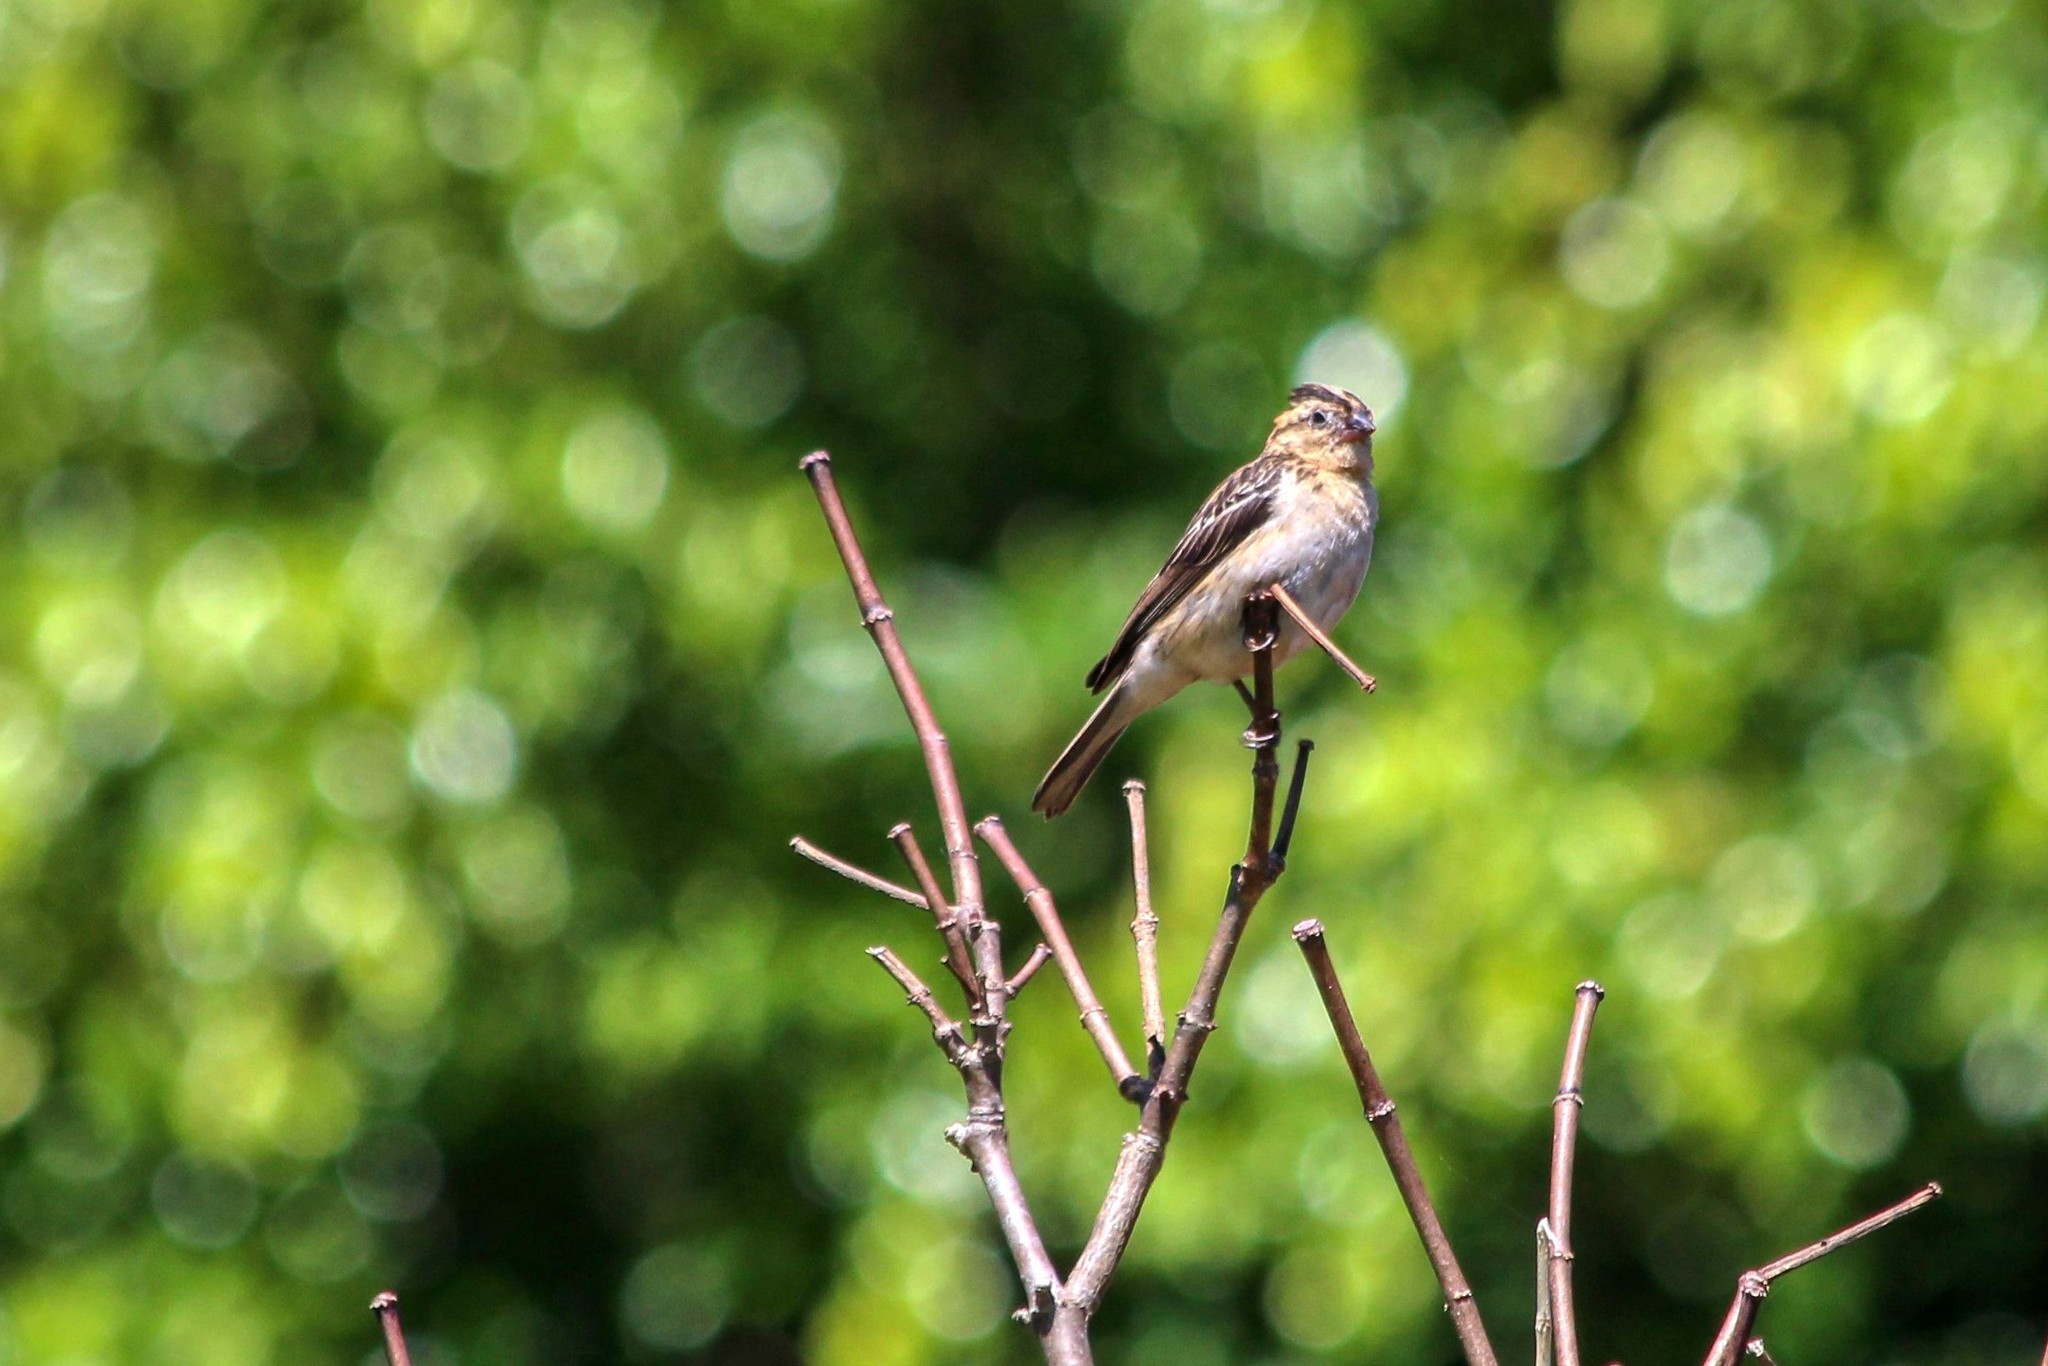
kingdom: Animalia
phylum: Chordata
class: Aves
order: Passeriformes
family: Viduidae
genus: Vidua
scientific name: Vidua macroura
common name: Pin-tailed whydah
